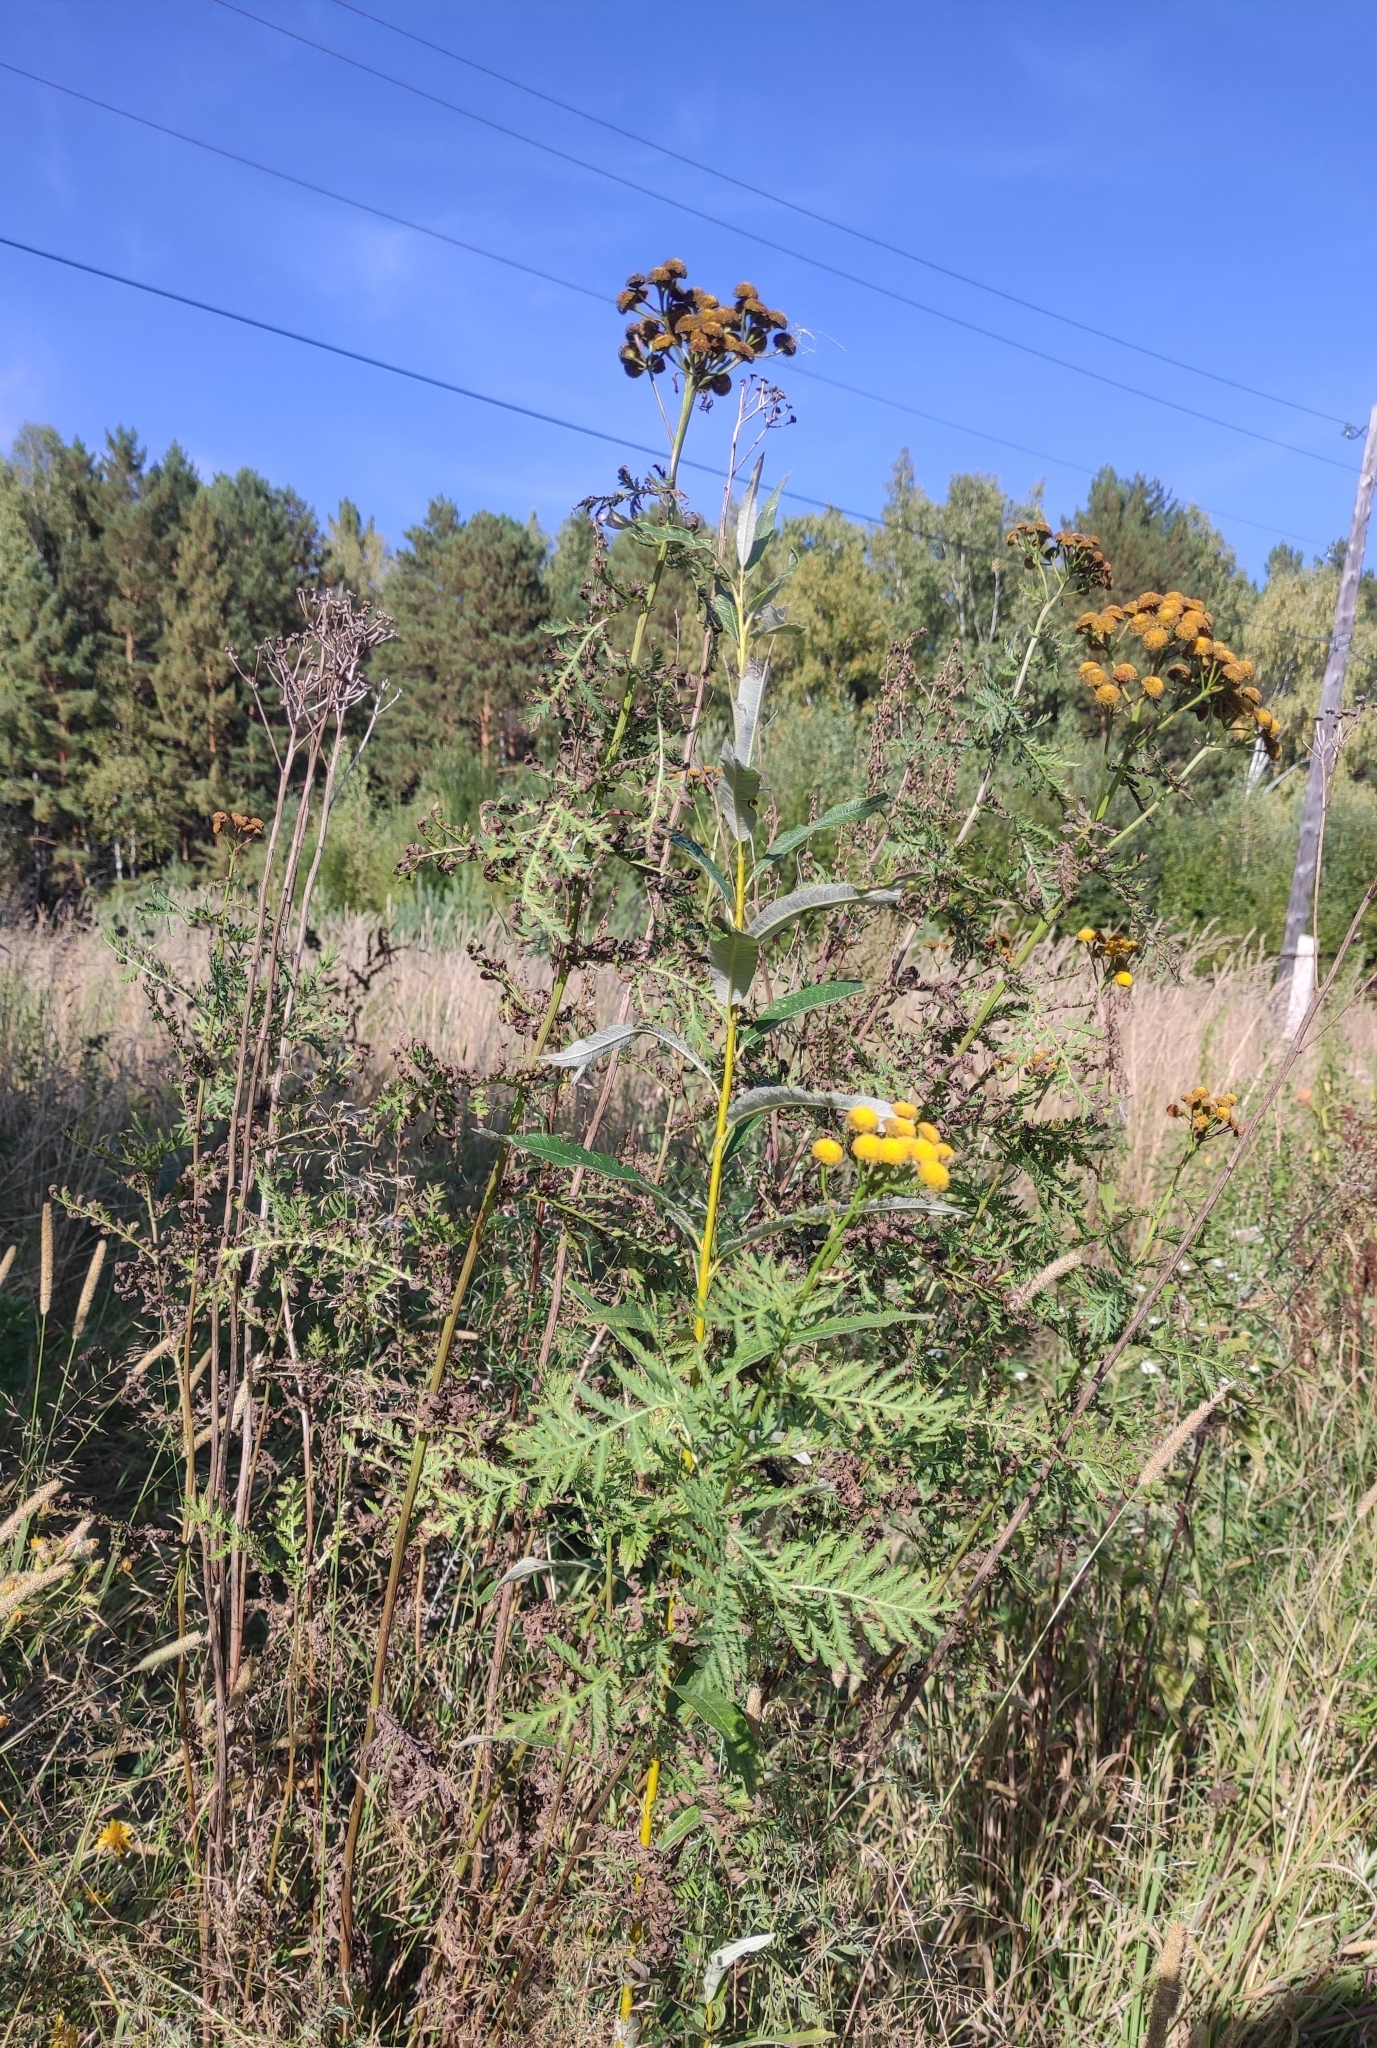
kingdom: Plantae
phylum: Tracheophyta
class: Magnoliopsida
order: Asterales
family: Asteraceae
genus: Tanacetum
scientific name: Tanacetum vulgare
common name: Common tansy
